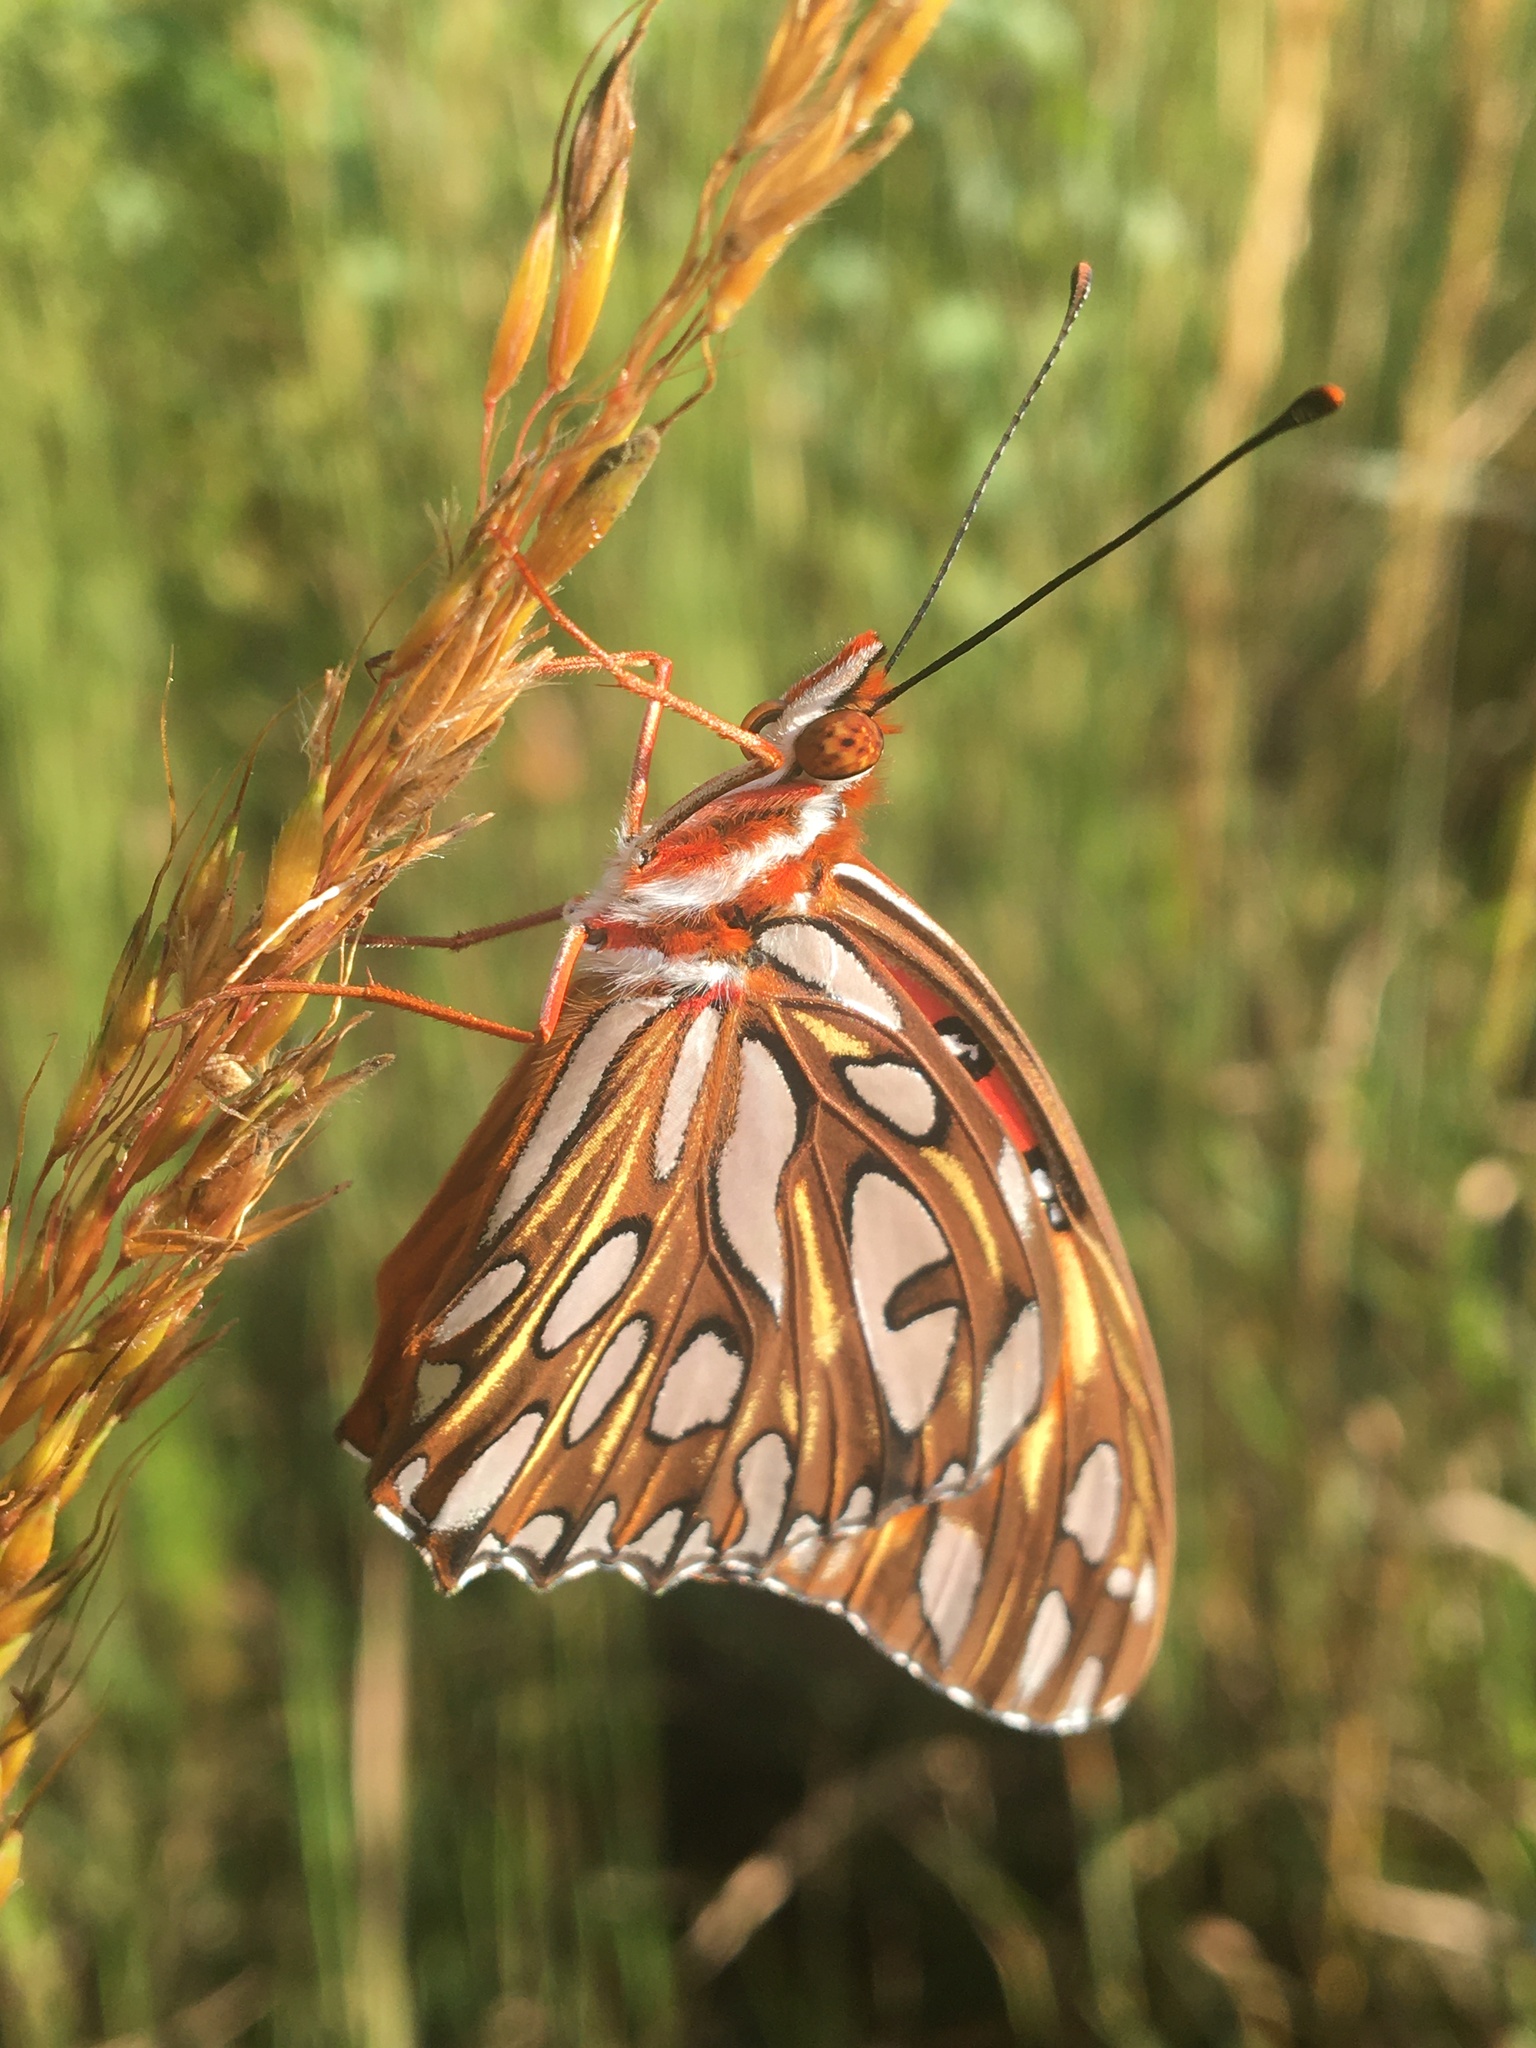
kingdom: Animalia
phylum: Arthropoda
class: Insecta
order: Lepidoptera
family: Nymphalidae
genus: Dione
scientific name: Dione vanillae
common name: Gulf fritillary
